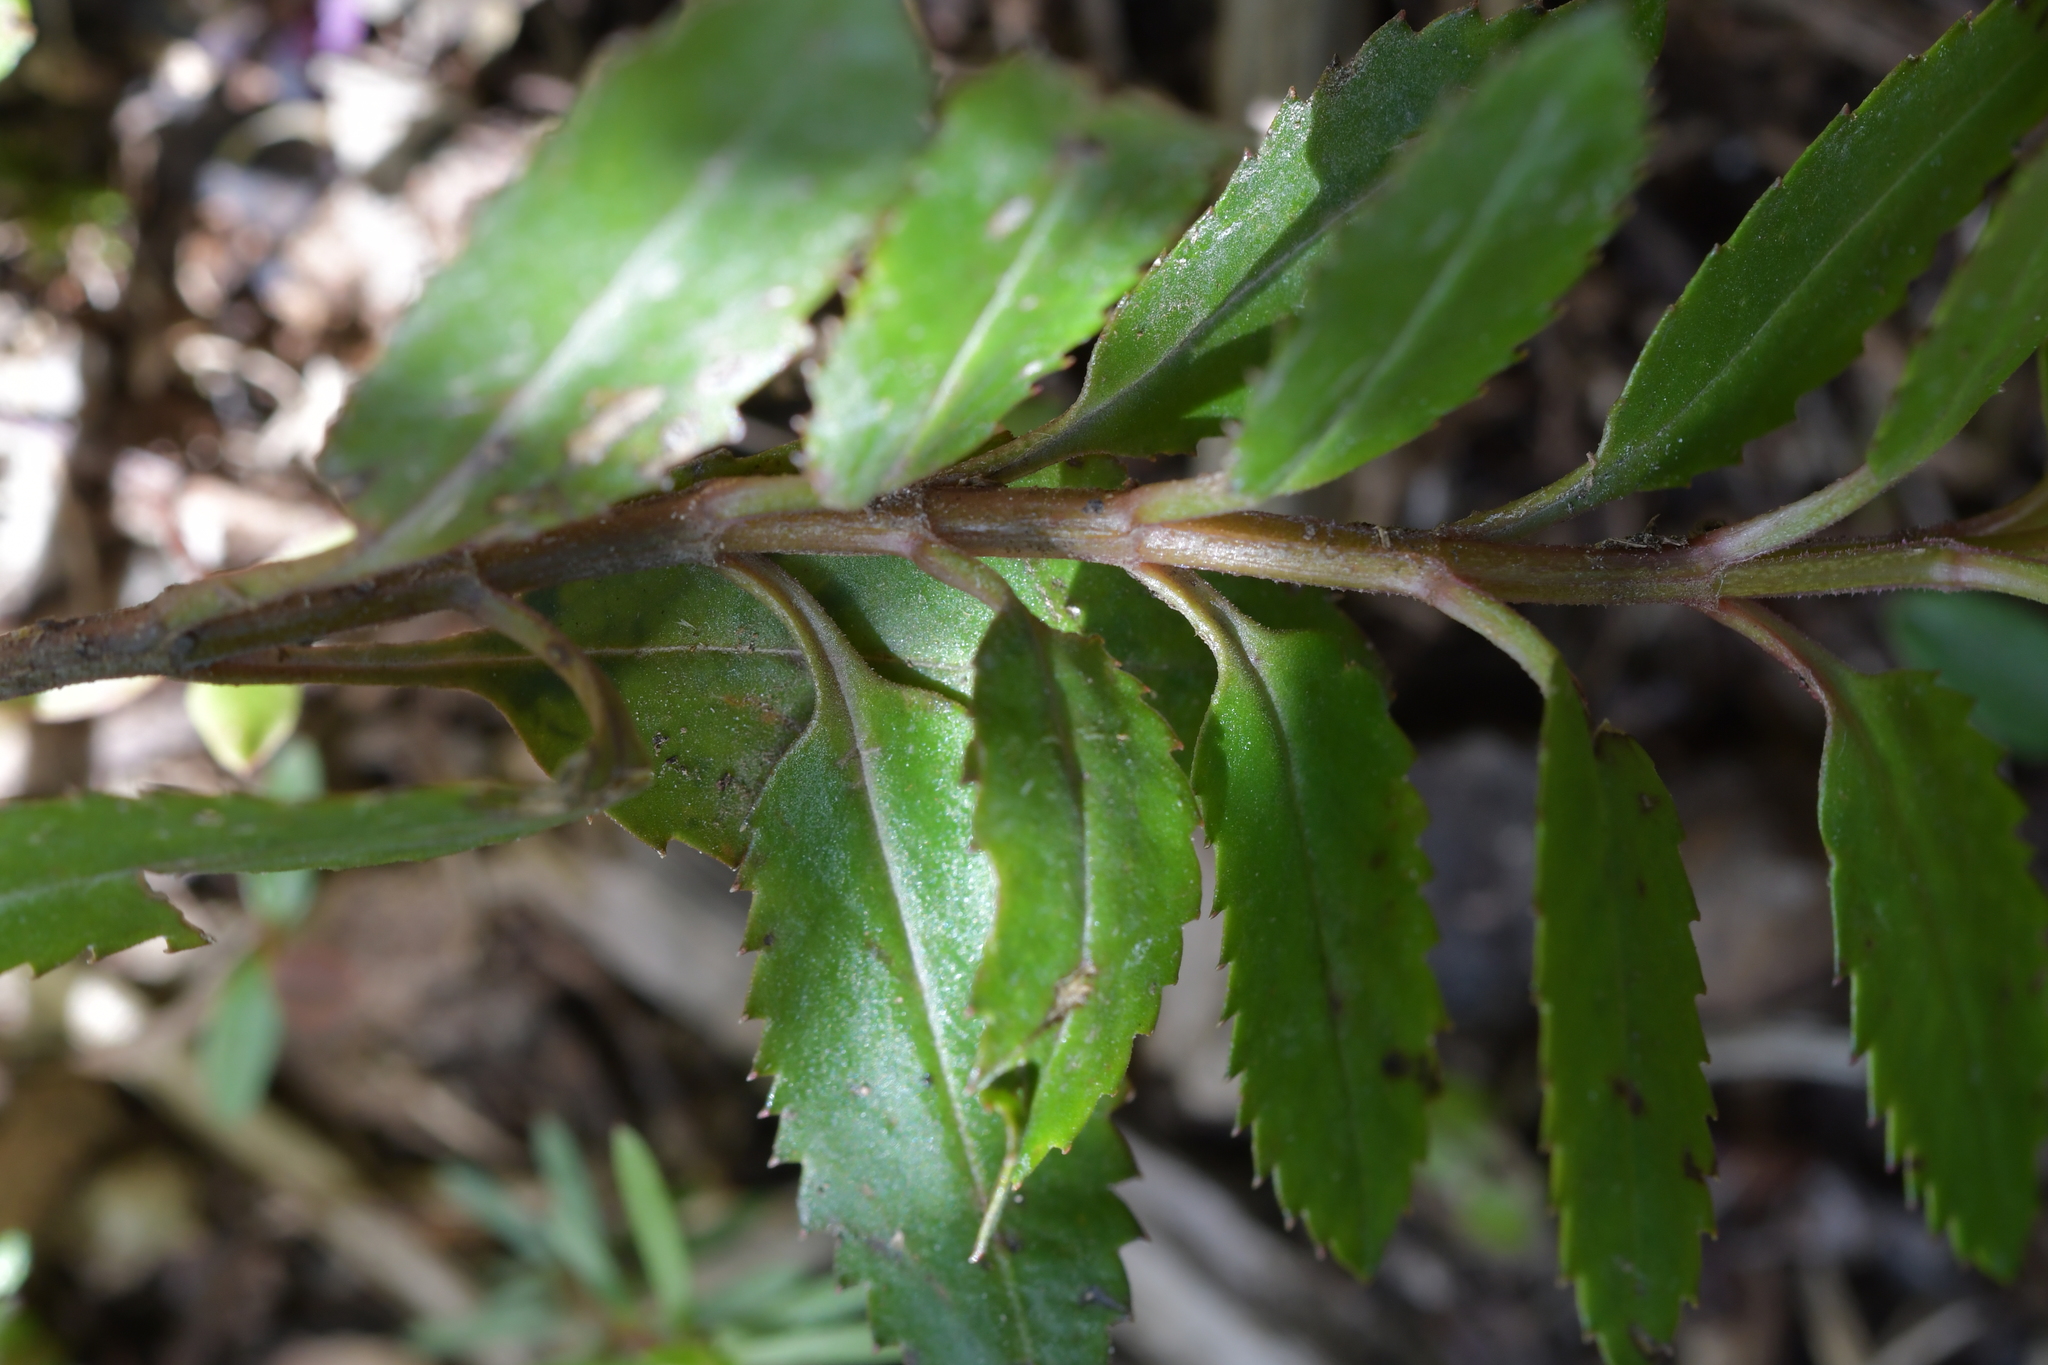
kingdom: Plantae
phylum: Tracheophyta
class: Magnoliopsida
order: Saxifragales
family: Haloragaceae
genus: Haloragis
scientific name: Haloragis erecta
